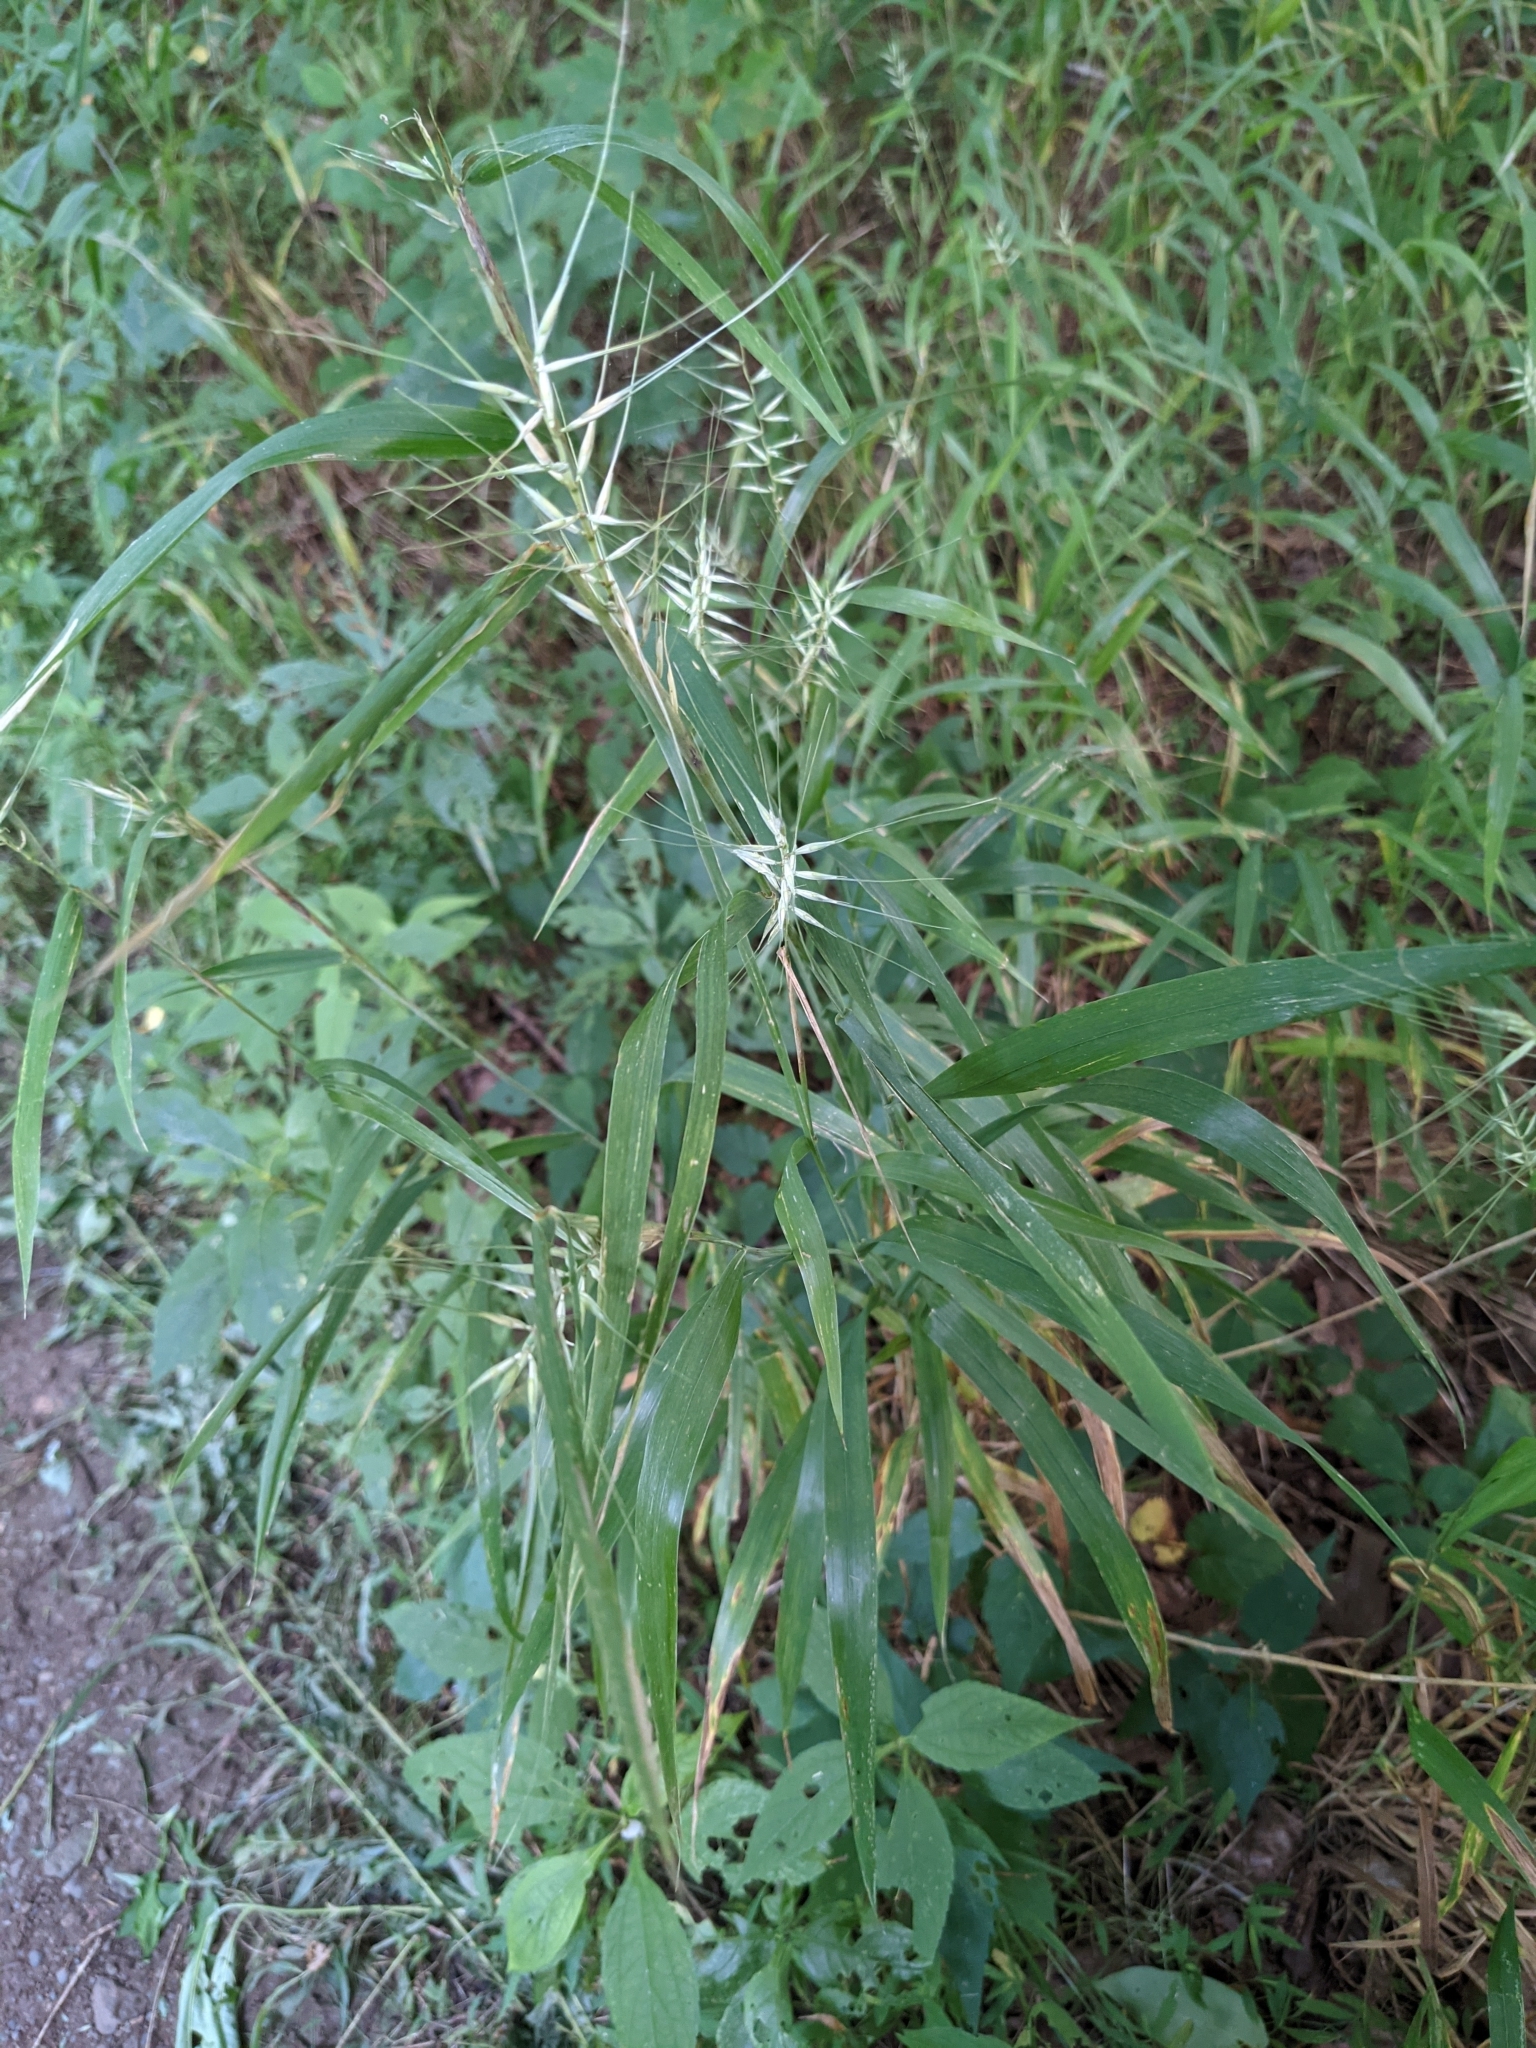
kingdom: Plantae
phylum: Tracheophyta
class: Liliopsida
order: Poales
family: Poaceae
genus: Elymus
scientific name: Elymus hystrix
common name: Bottlebrush grass
